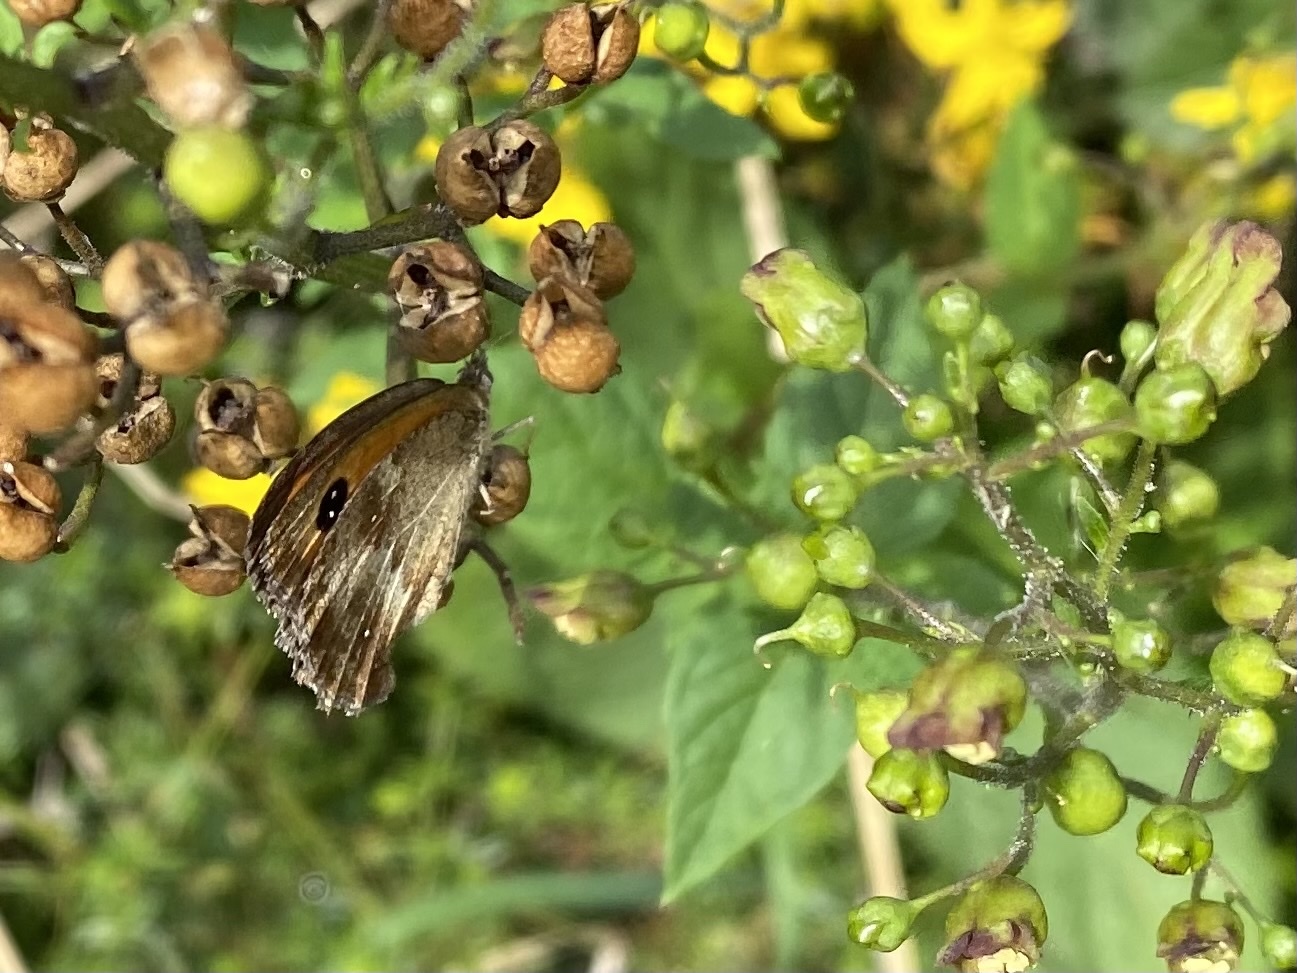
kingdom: Animalia
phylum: Arthropoda
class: Insecta
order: Lepidoptera
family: Nymphalidae
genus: Pyronia
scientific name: Pyronia tithonus
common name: Gatekeeper
